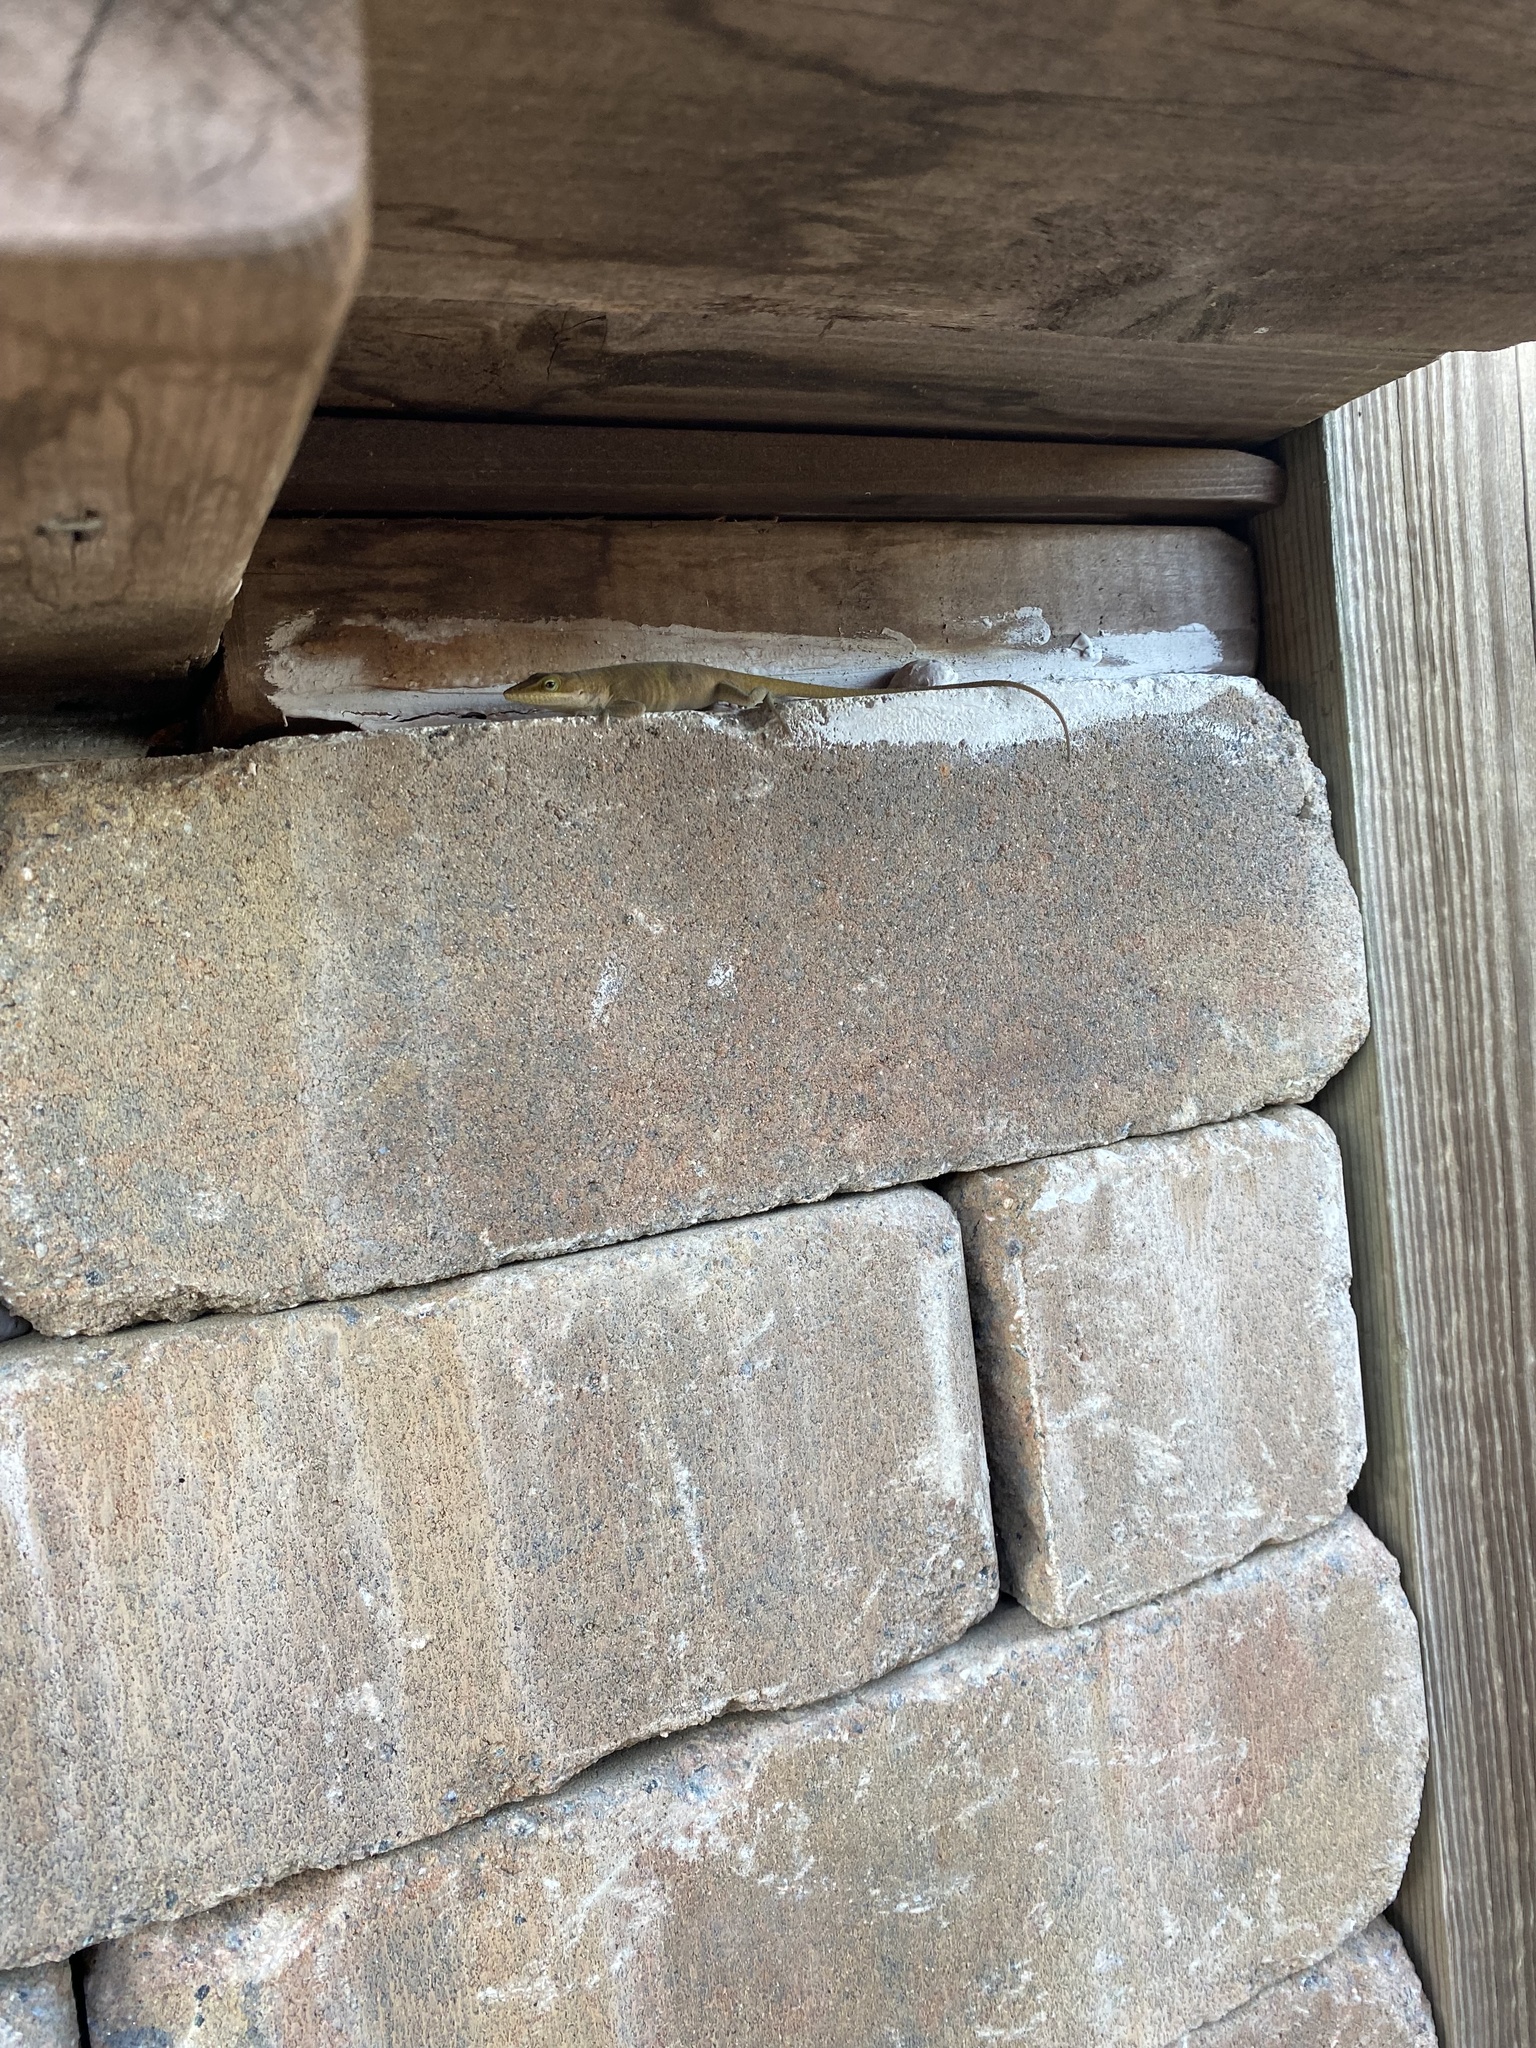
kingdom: Animalia
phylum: Chordata
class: Squamata
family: Dactyloidae
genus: Anolis
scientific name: Anolis carolinensis
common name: Green anole
